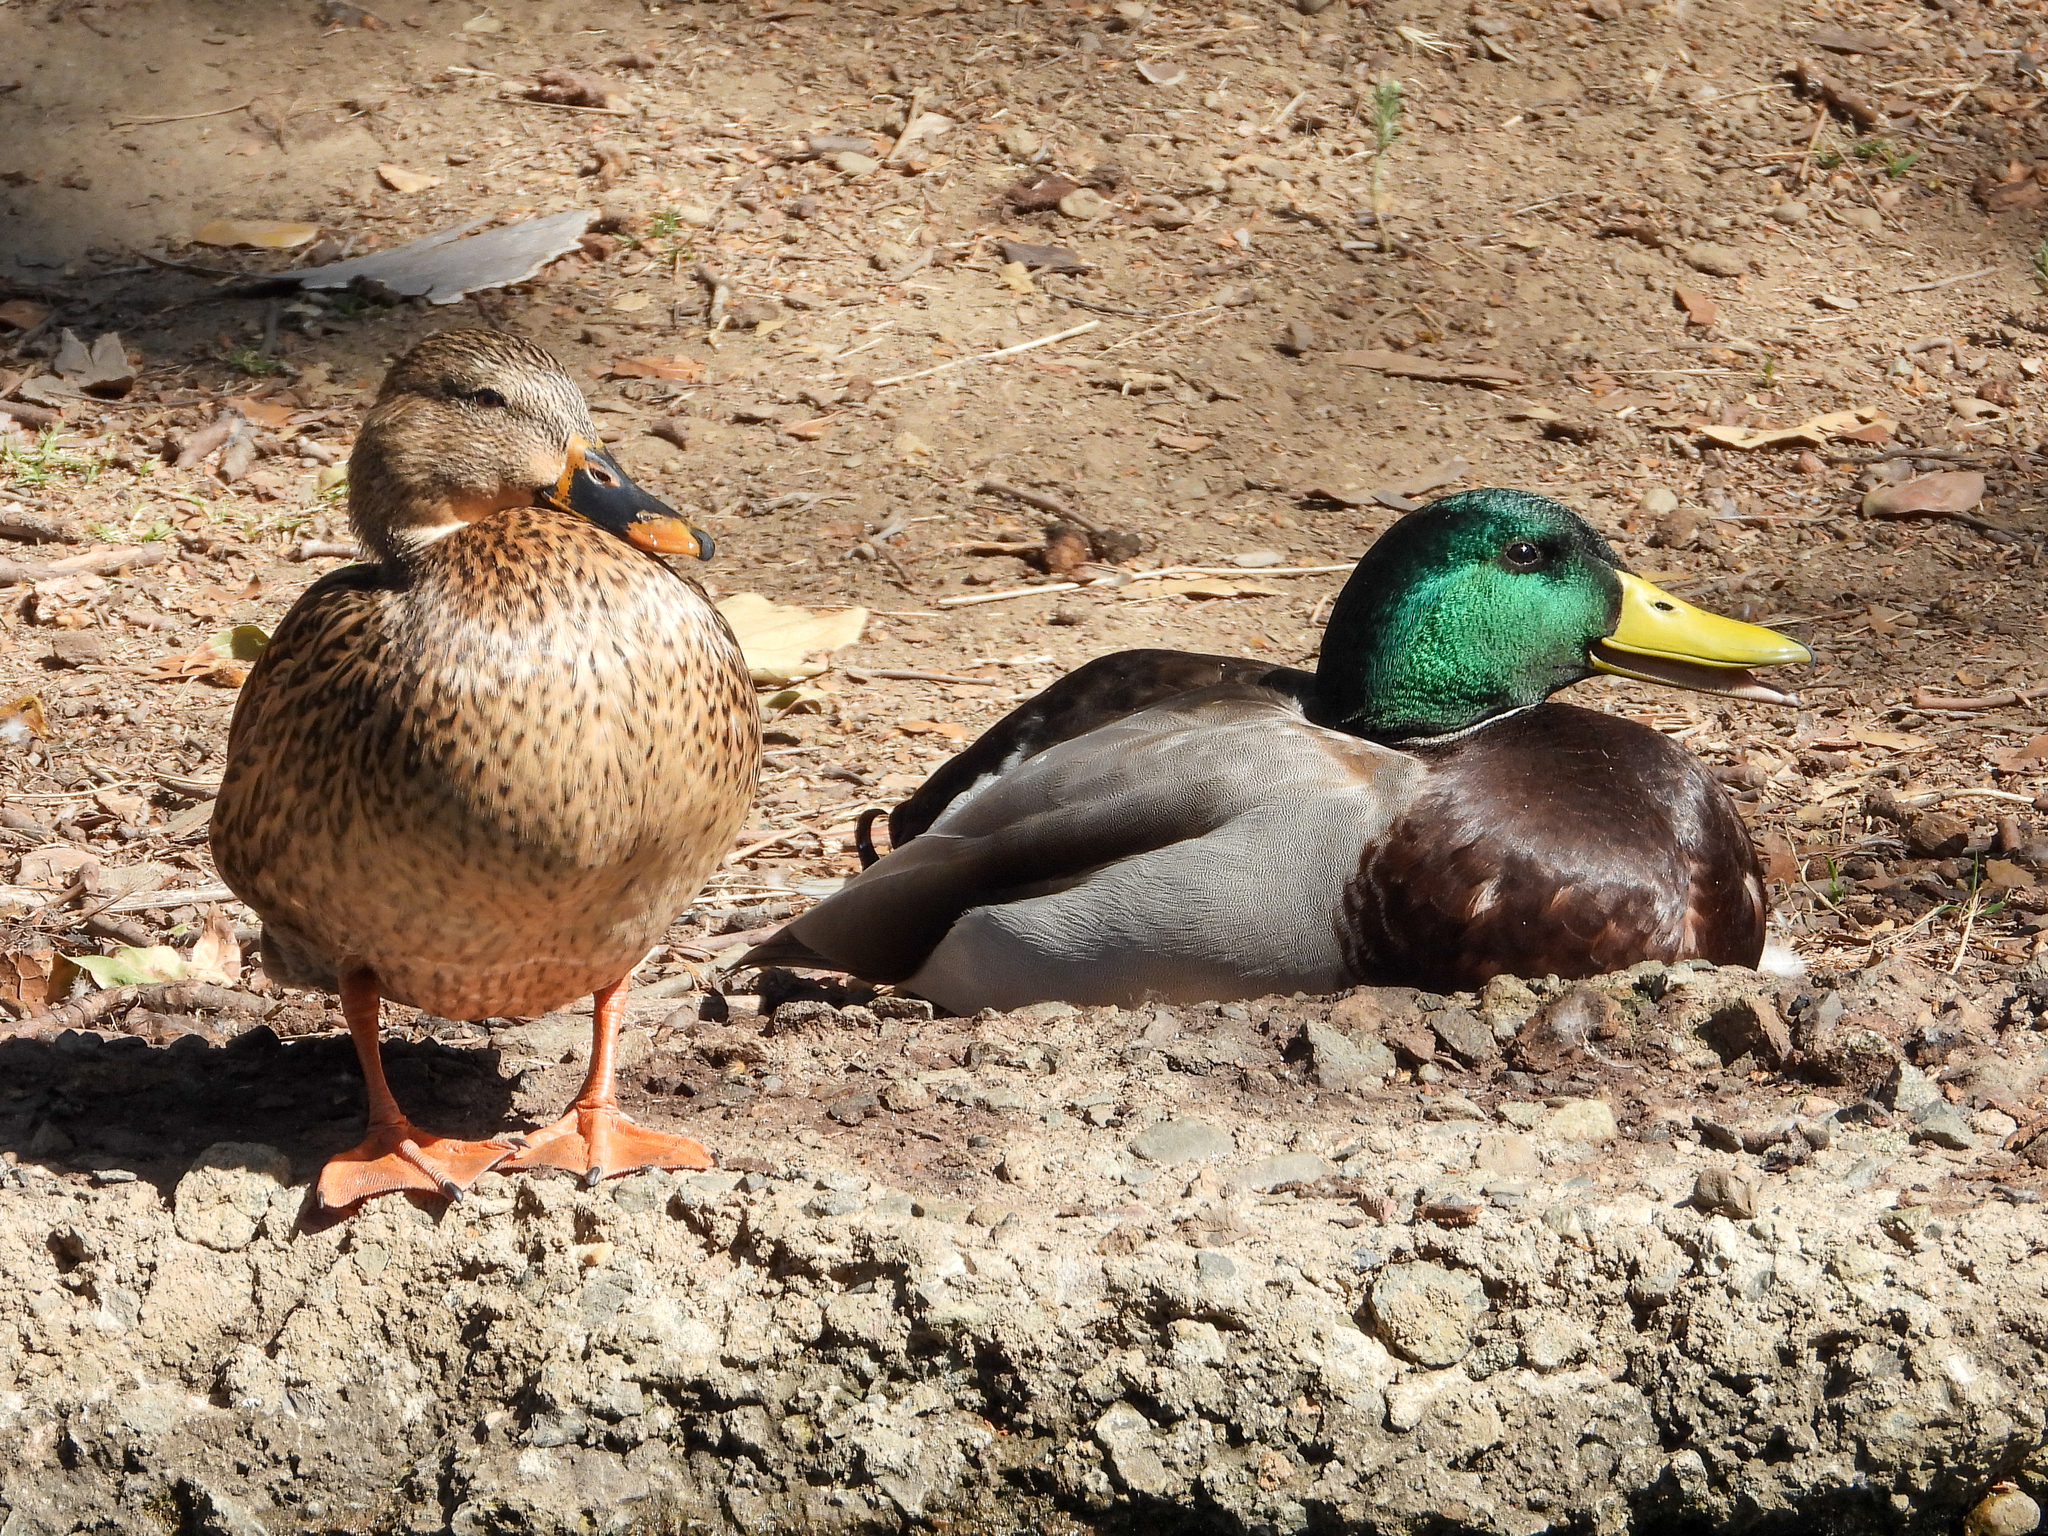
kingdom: Animalia
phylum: Chordata
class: Aves
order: Anseriformes
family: Anatidae
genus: Anas
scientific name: Anas platyrhynchos
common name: Mallard
